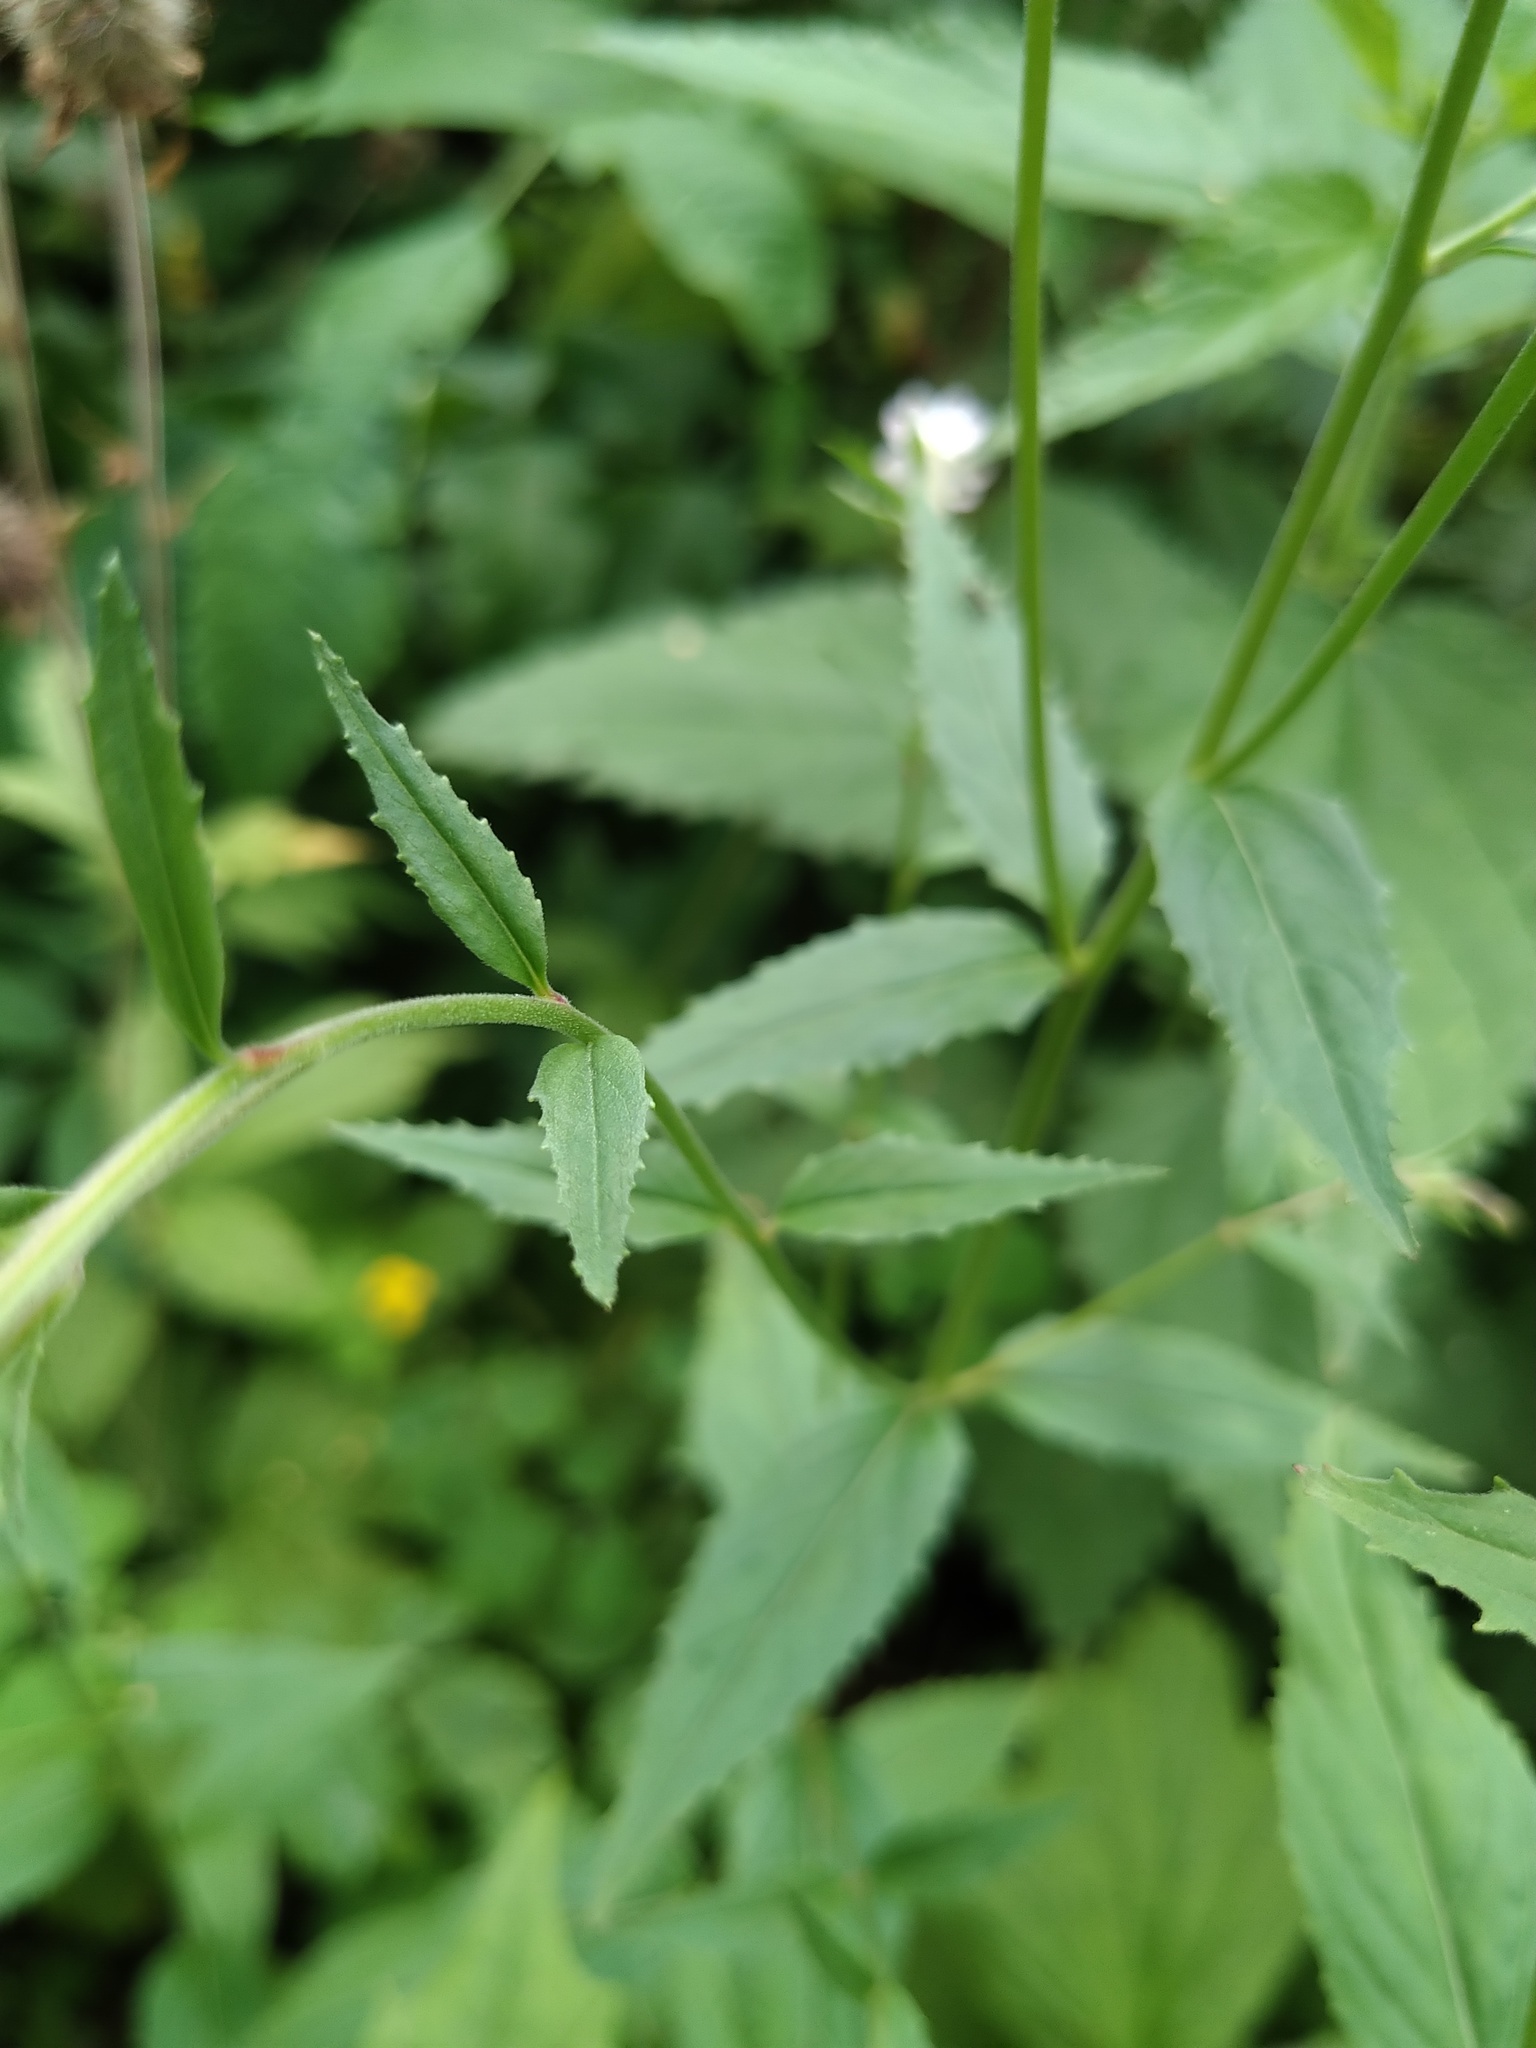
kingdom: Plantae
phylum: Tracheophyta
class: Magnoliopsida
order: Myrtales
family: Onagraceae
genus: Epilobium
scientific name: Epilobium montanum
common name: Broad-leaved willowherb
